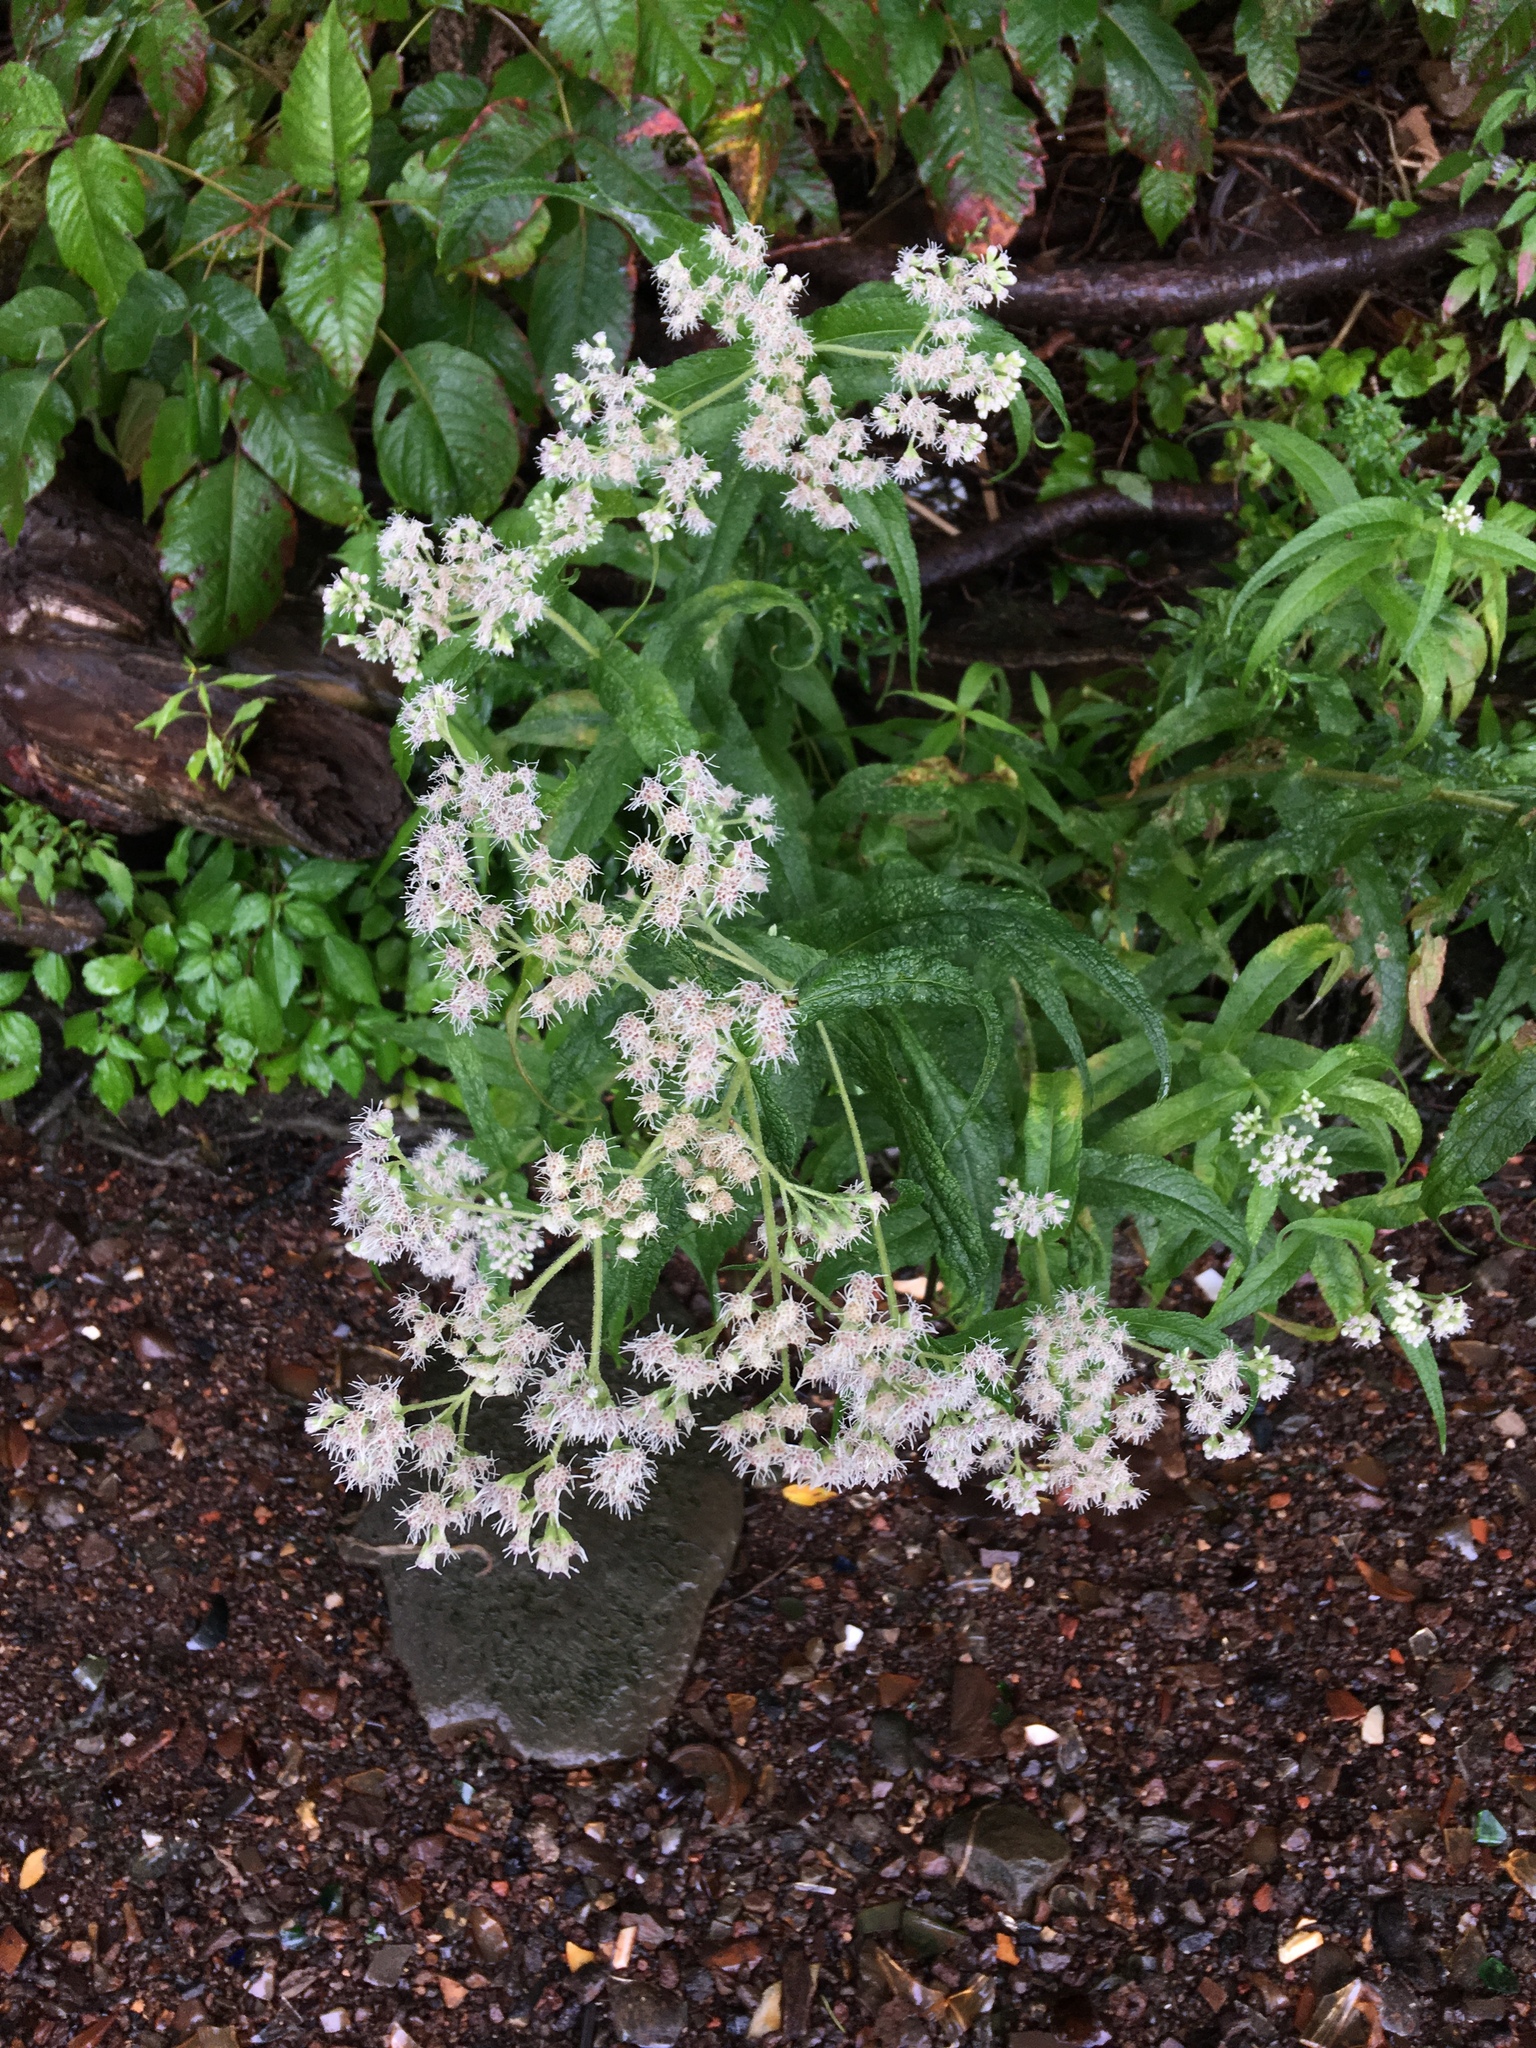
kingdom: Plantae
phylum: Tracheophyta
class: Magnoliopsida
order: Asterales
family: Asteraceae
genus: Eupatorium
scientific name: Eupatorium perfoliatum
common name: Boneset
